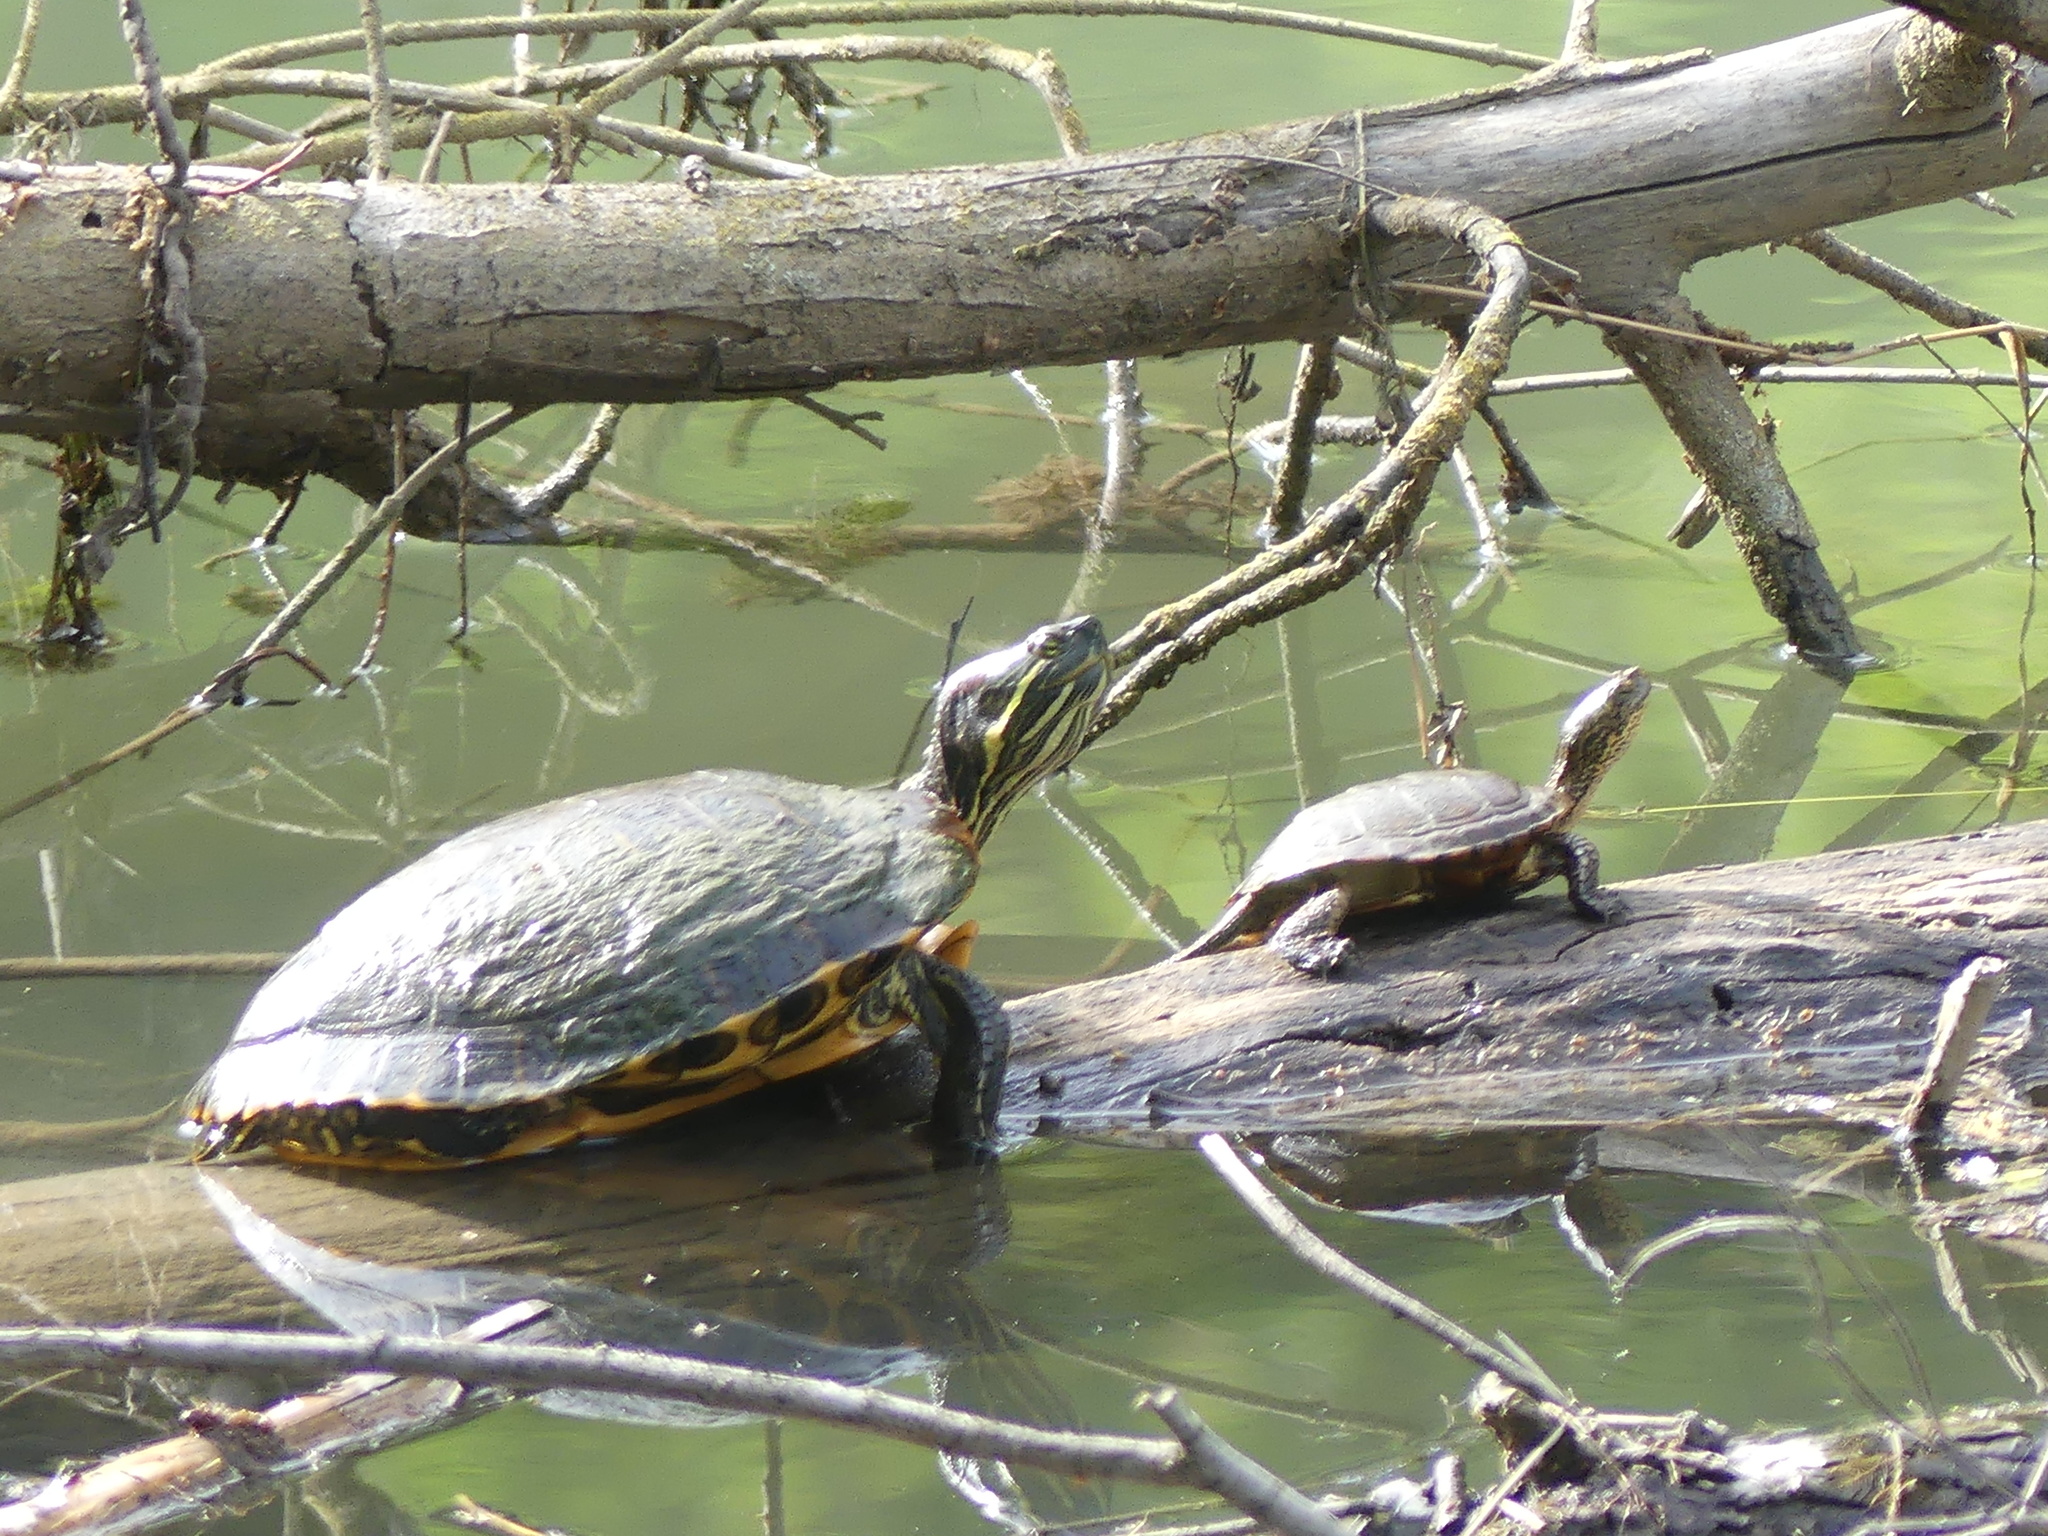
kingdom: Animalia
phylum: Chordata
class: Testudines
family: Emydidae
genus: Trachemys
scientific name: Trachemys scripta
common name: Slider
